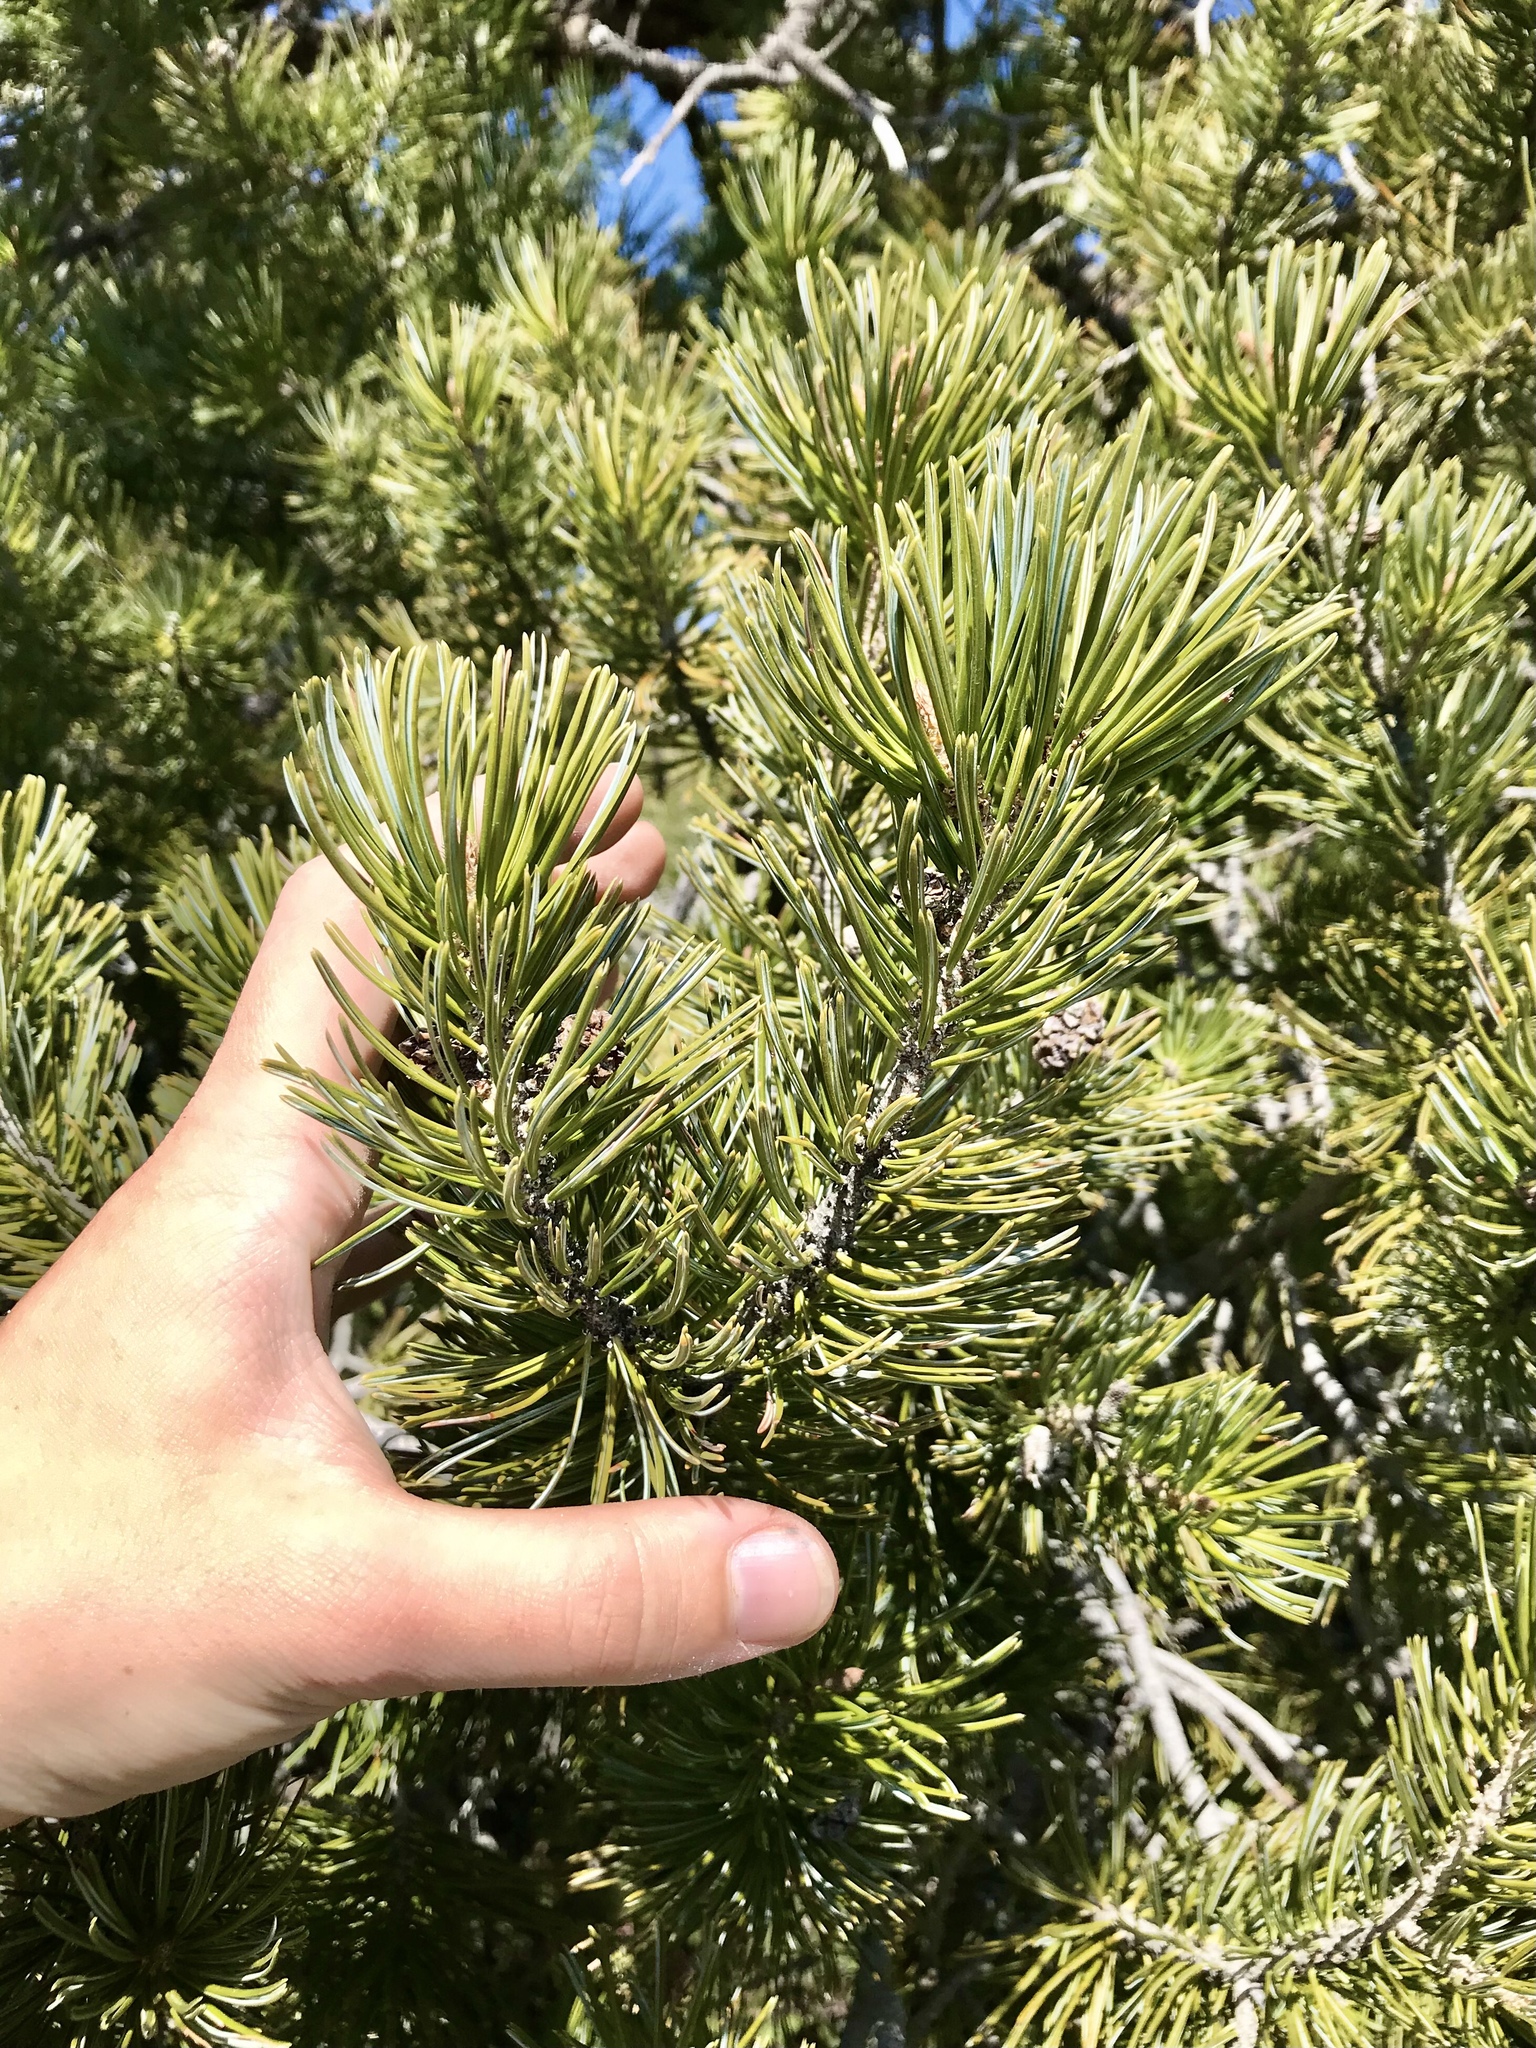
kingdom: Plantae
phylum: Tracheophyta
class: Pinopsida
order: Pinales
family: Pinaceae
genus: Pinus
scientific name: Pinus cembroides
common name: Mexican nut pine
